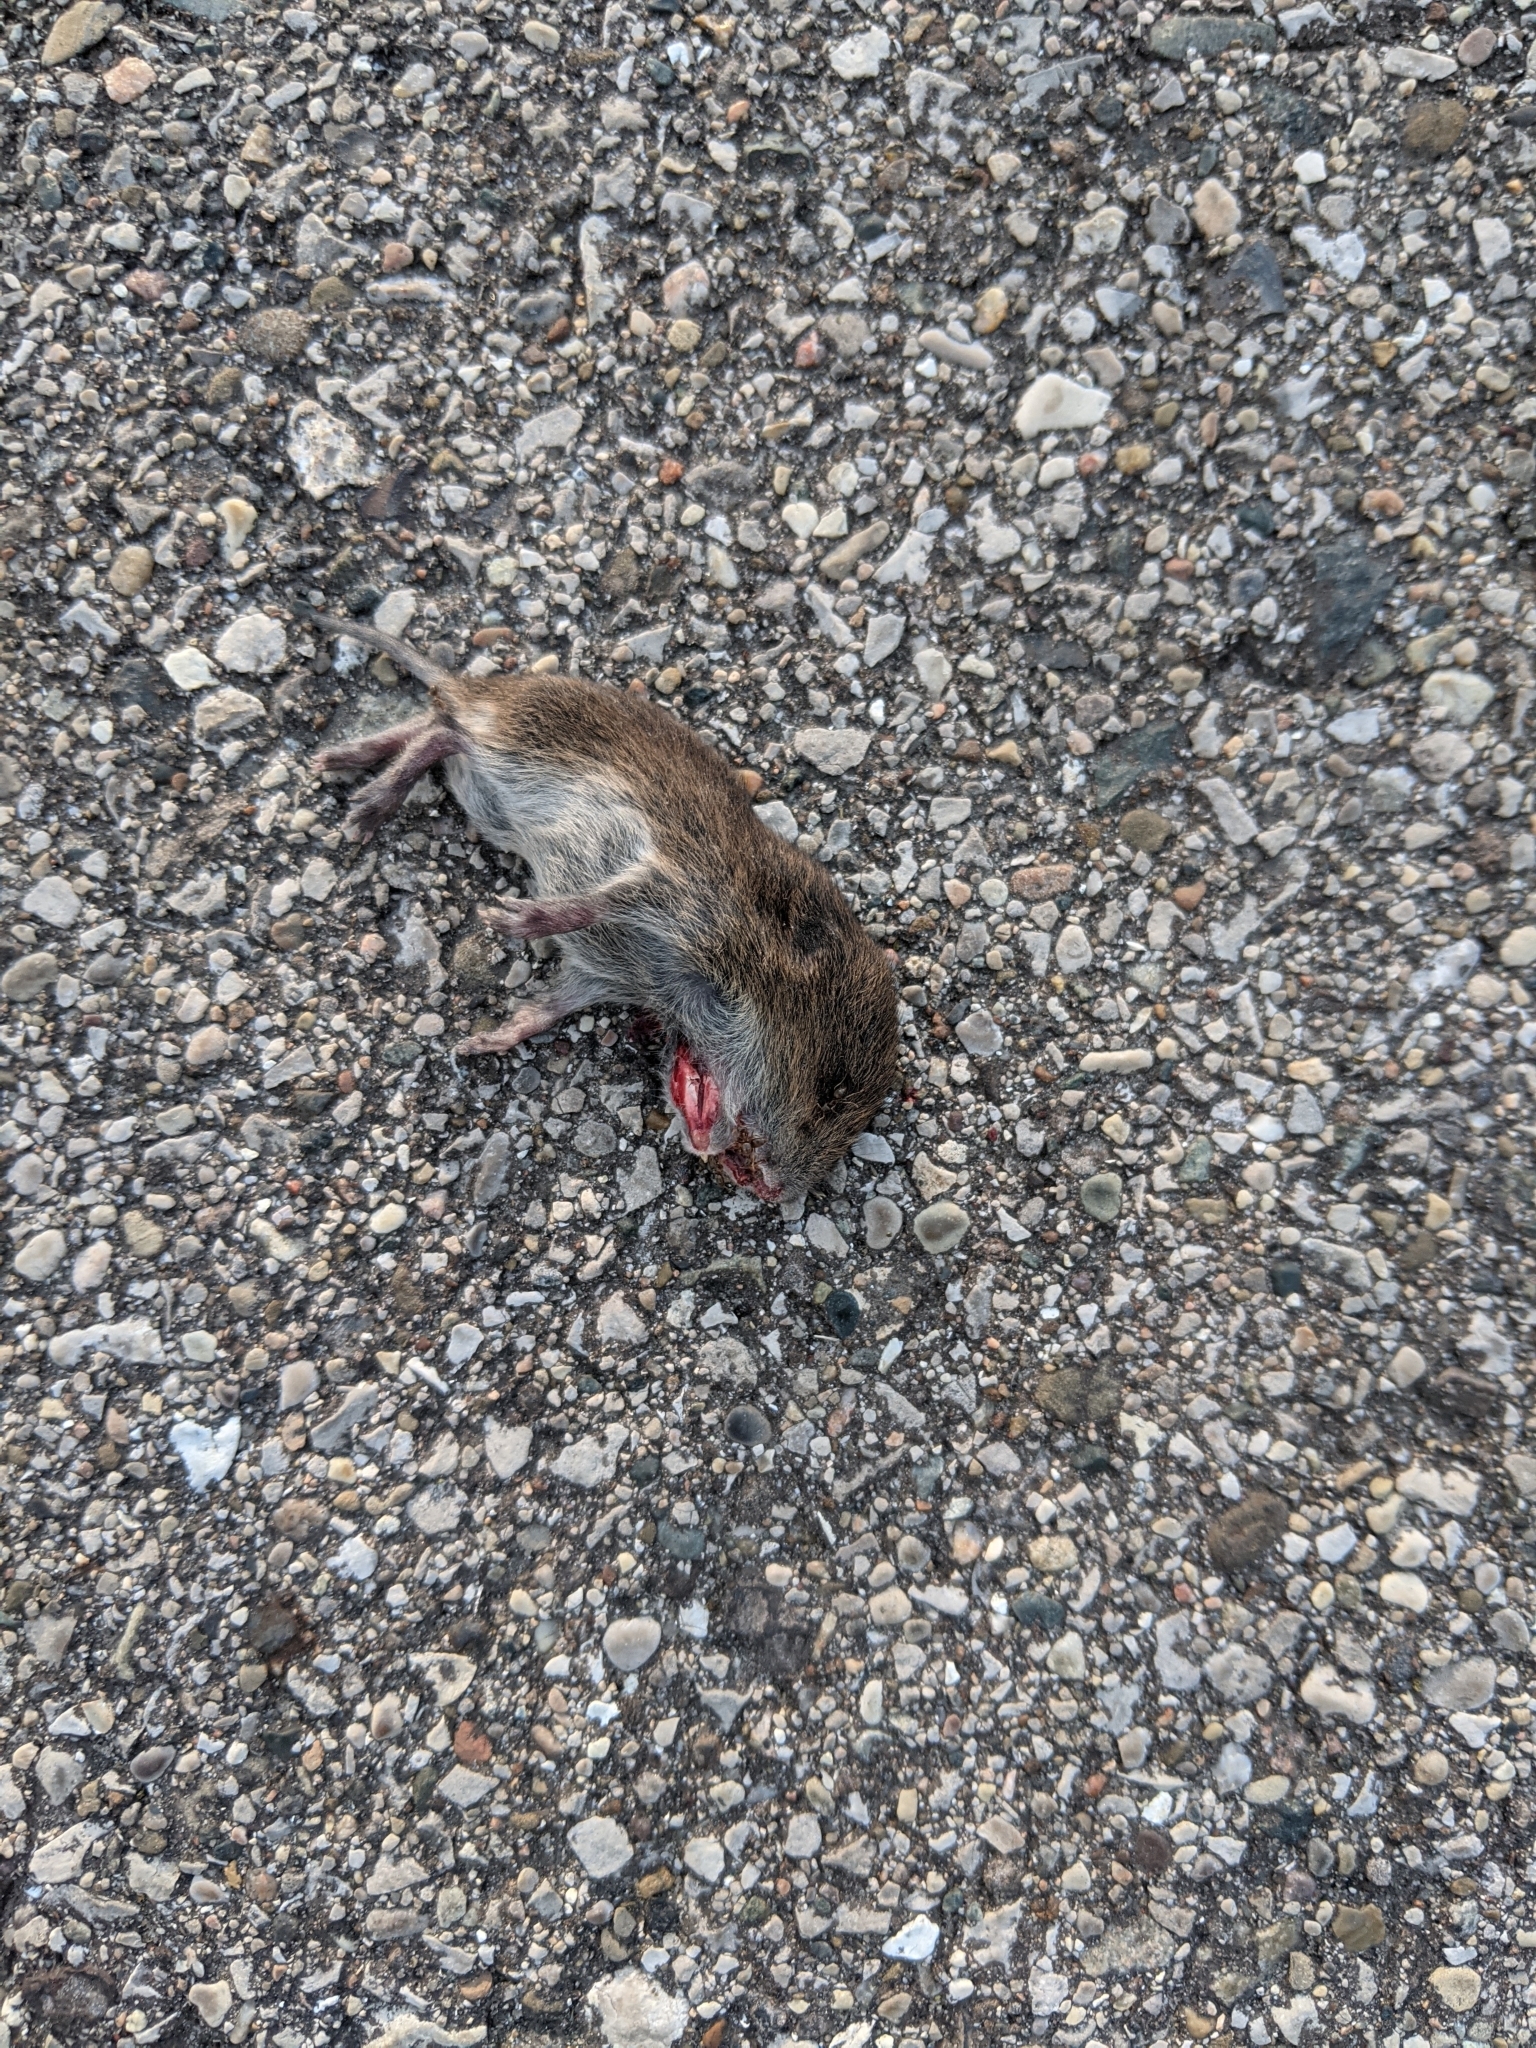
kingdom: Animalia
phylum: Chordata
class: Mammalia
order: Rodentia
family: Cricetidae
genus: Microtus
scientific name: Microtus pennsylvanicus
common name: Meadow vole
